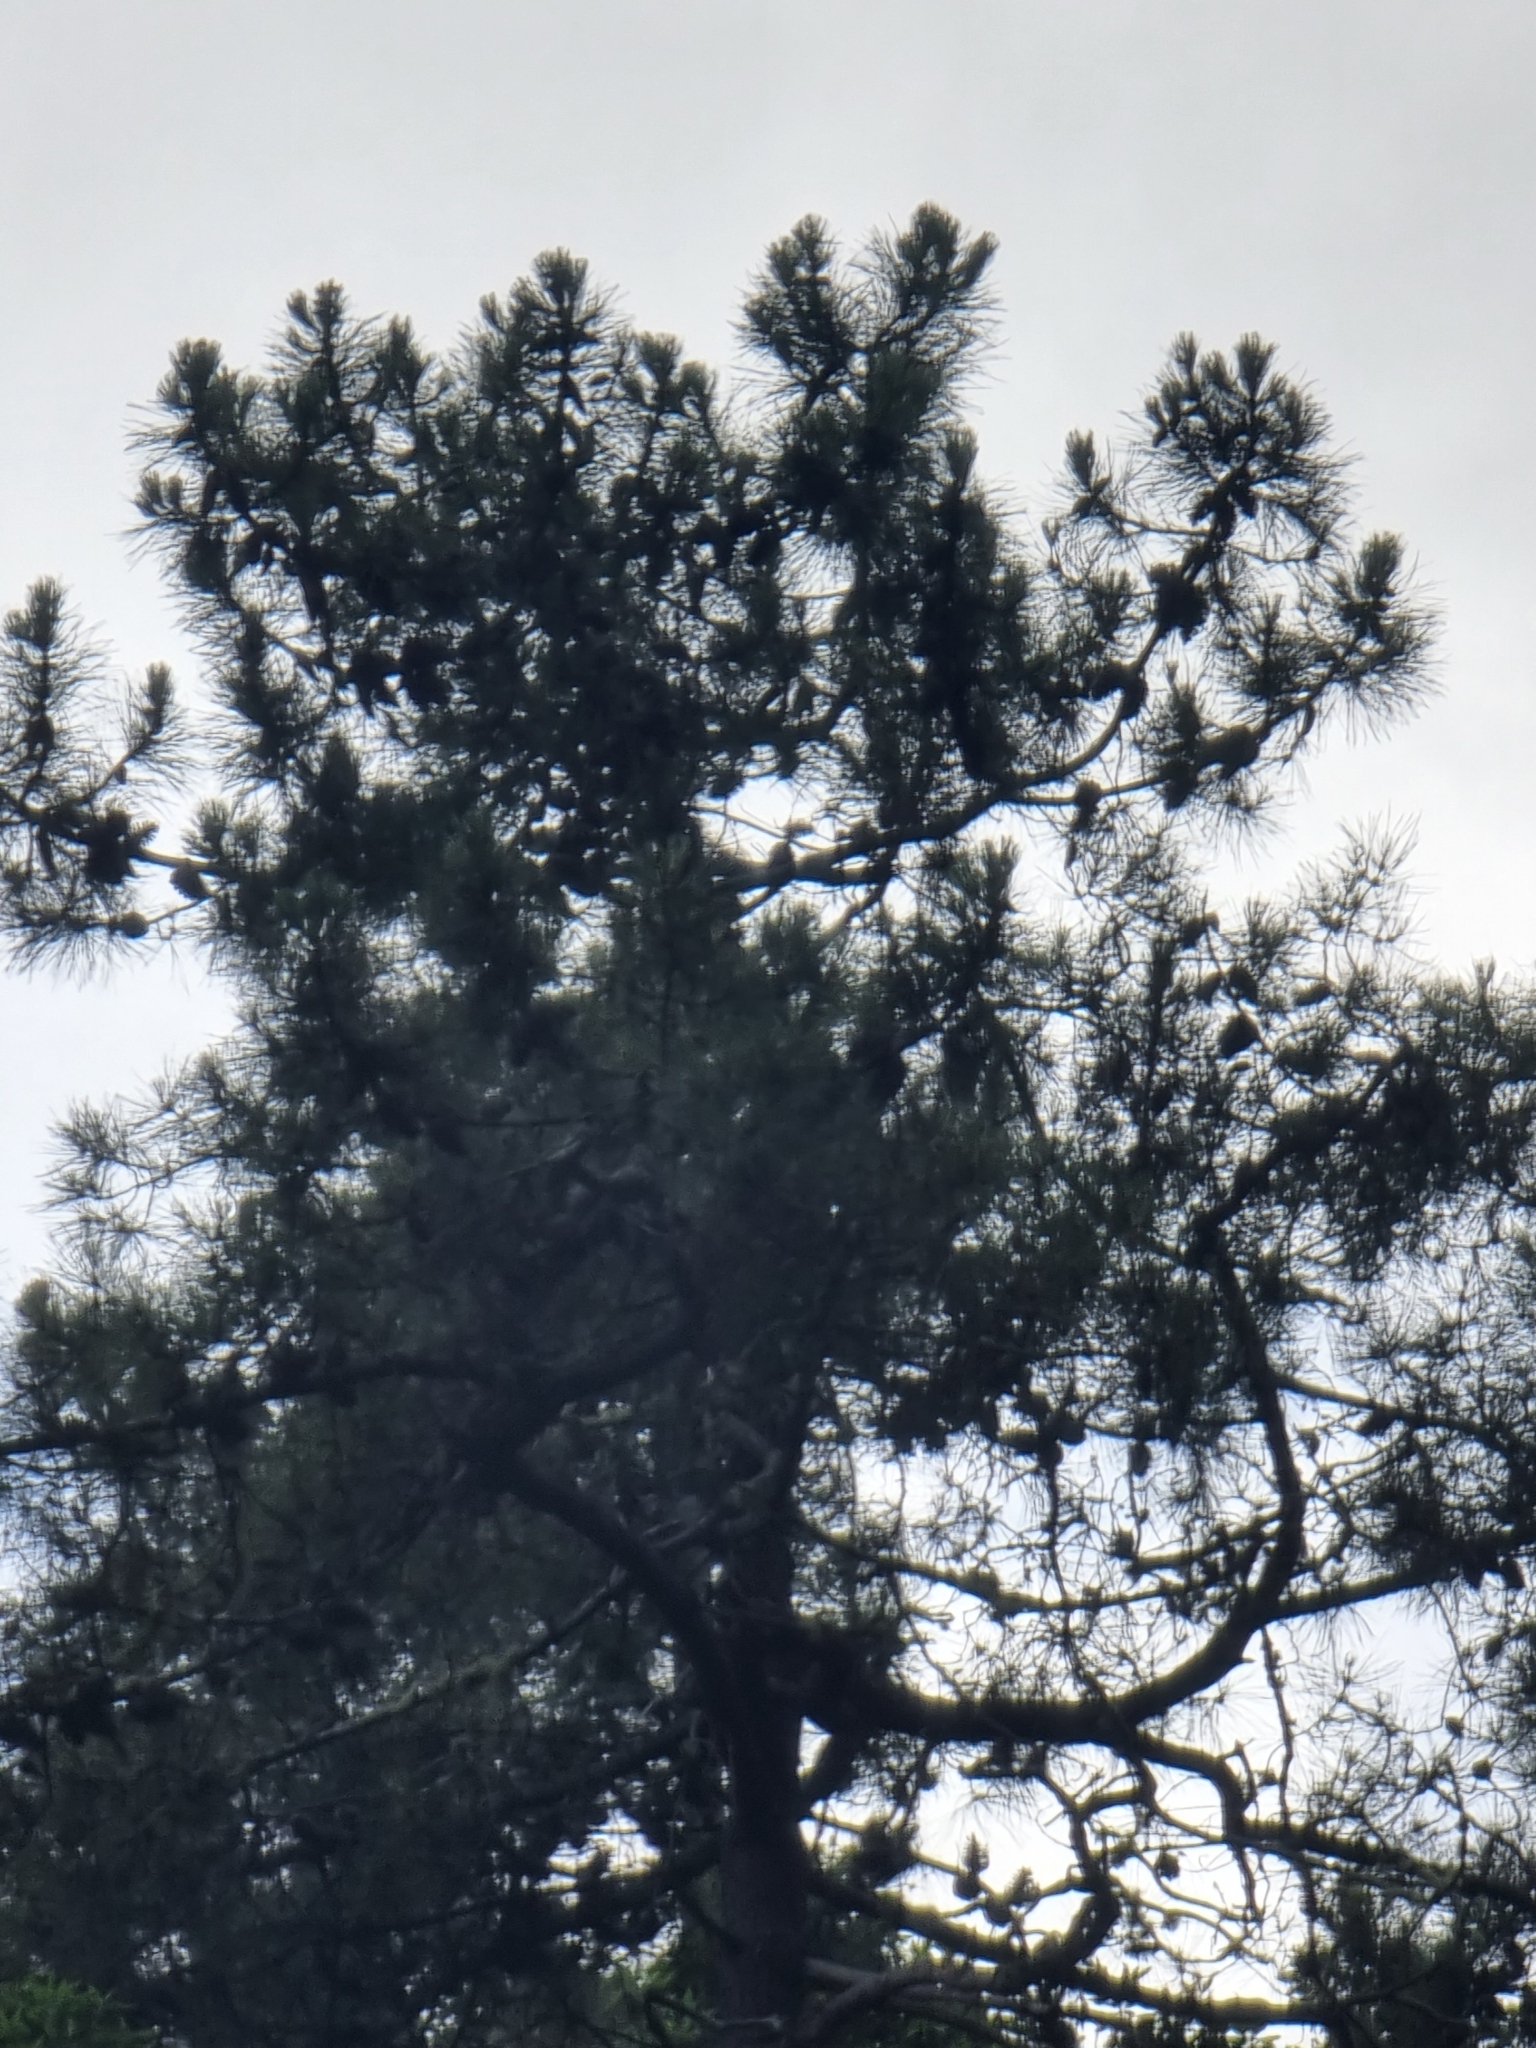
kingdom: Plantae
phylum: Tracheophyta
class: Pinopsida
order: Pinales
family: Pinaceae
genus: Pinus
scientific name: Pinus pinaster
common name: Maritime pine
